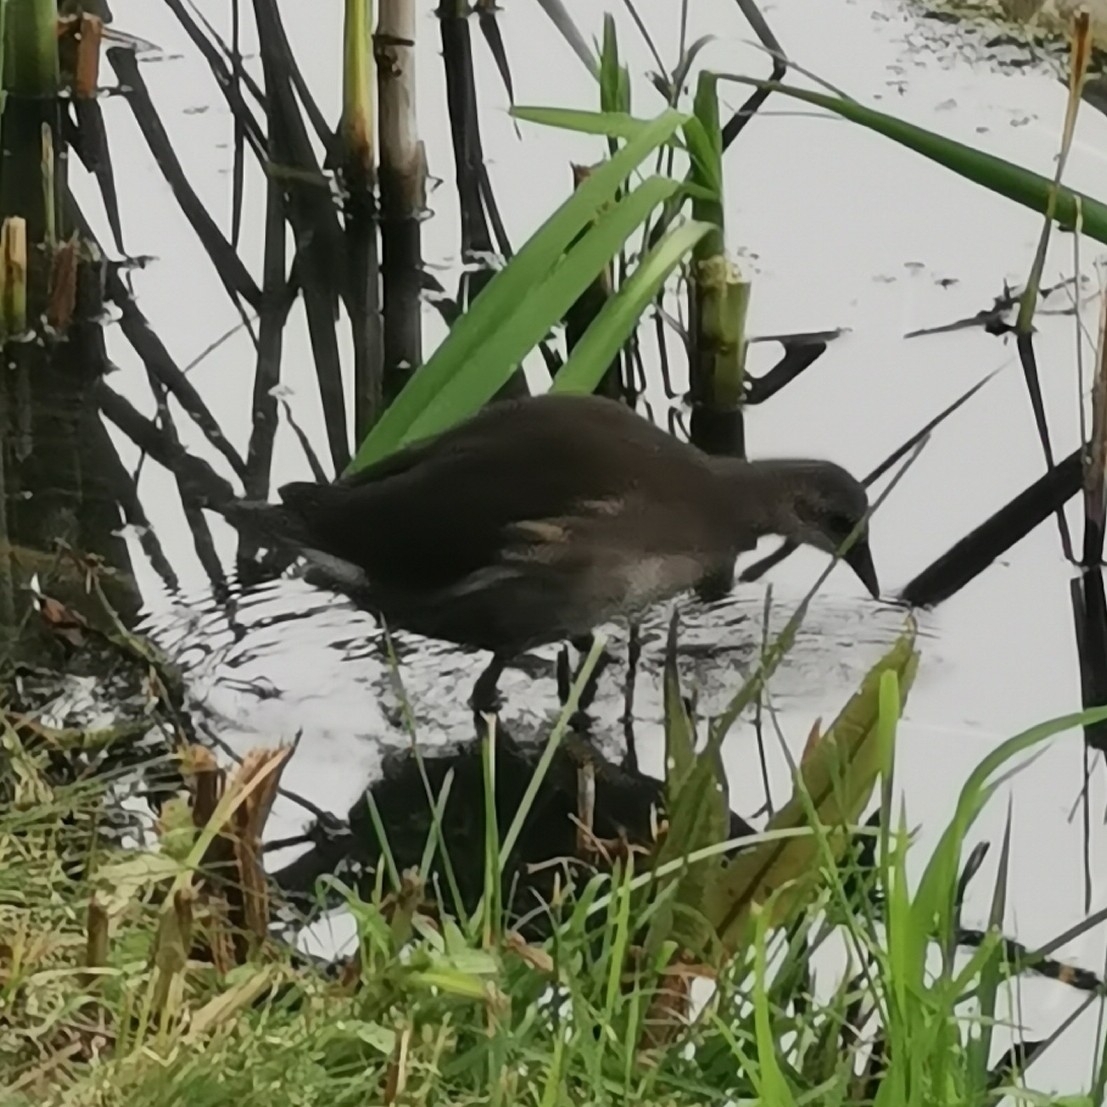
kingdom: Animalia
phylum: Chordata
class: Aves
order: Gruiformes
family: Rallidae
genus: Gallinula
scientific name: Gallinula chloropus
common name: Common moorhen
